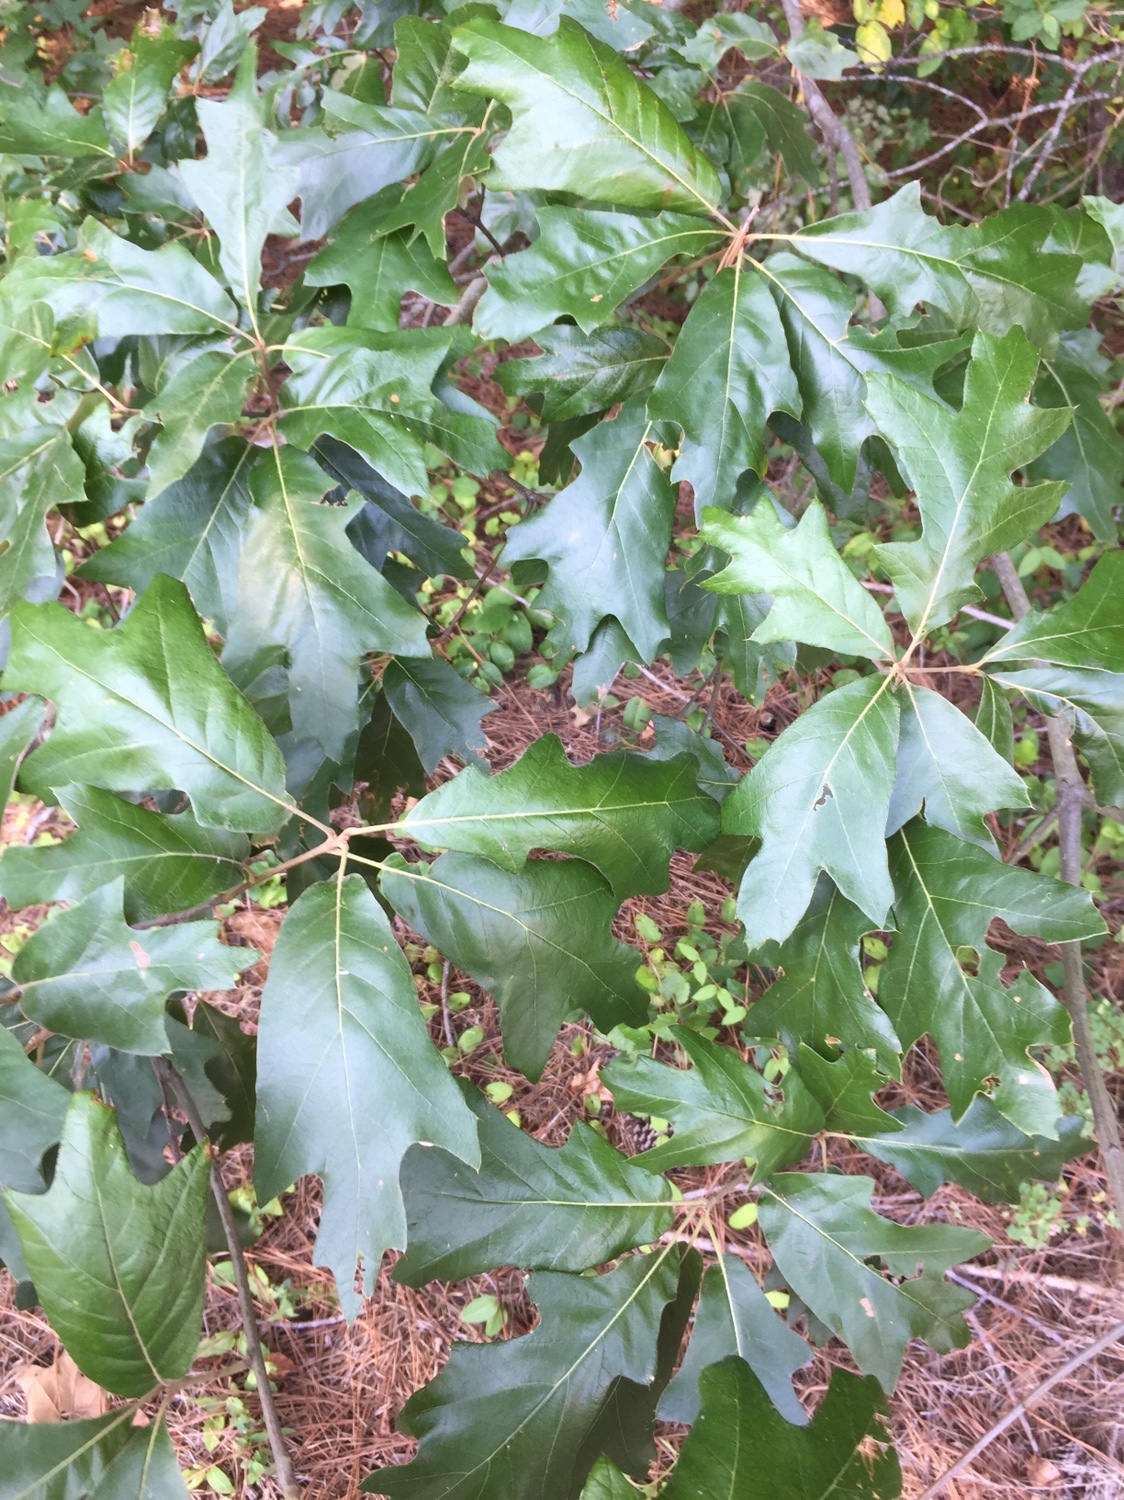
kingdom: Plantae
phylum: Tracheophyta
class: Magnoliopsida
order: Fagales
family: Fagaceae
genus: Quercus
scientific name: Quercus falcata
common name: Southern red oak
